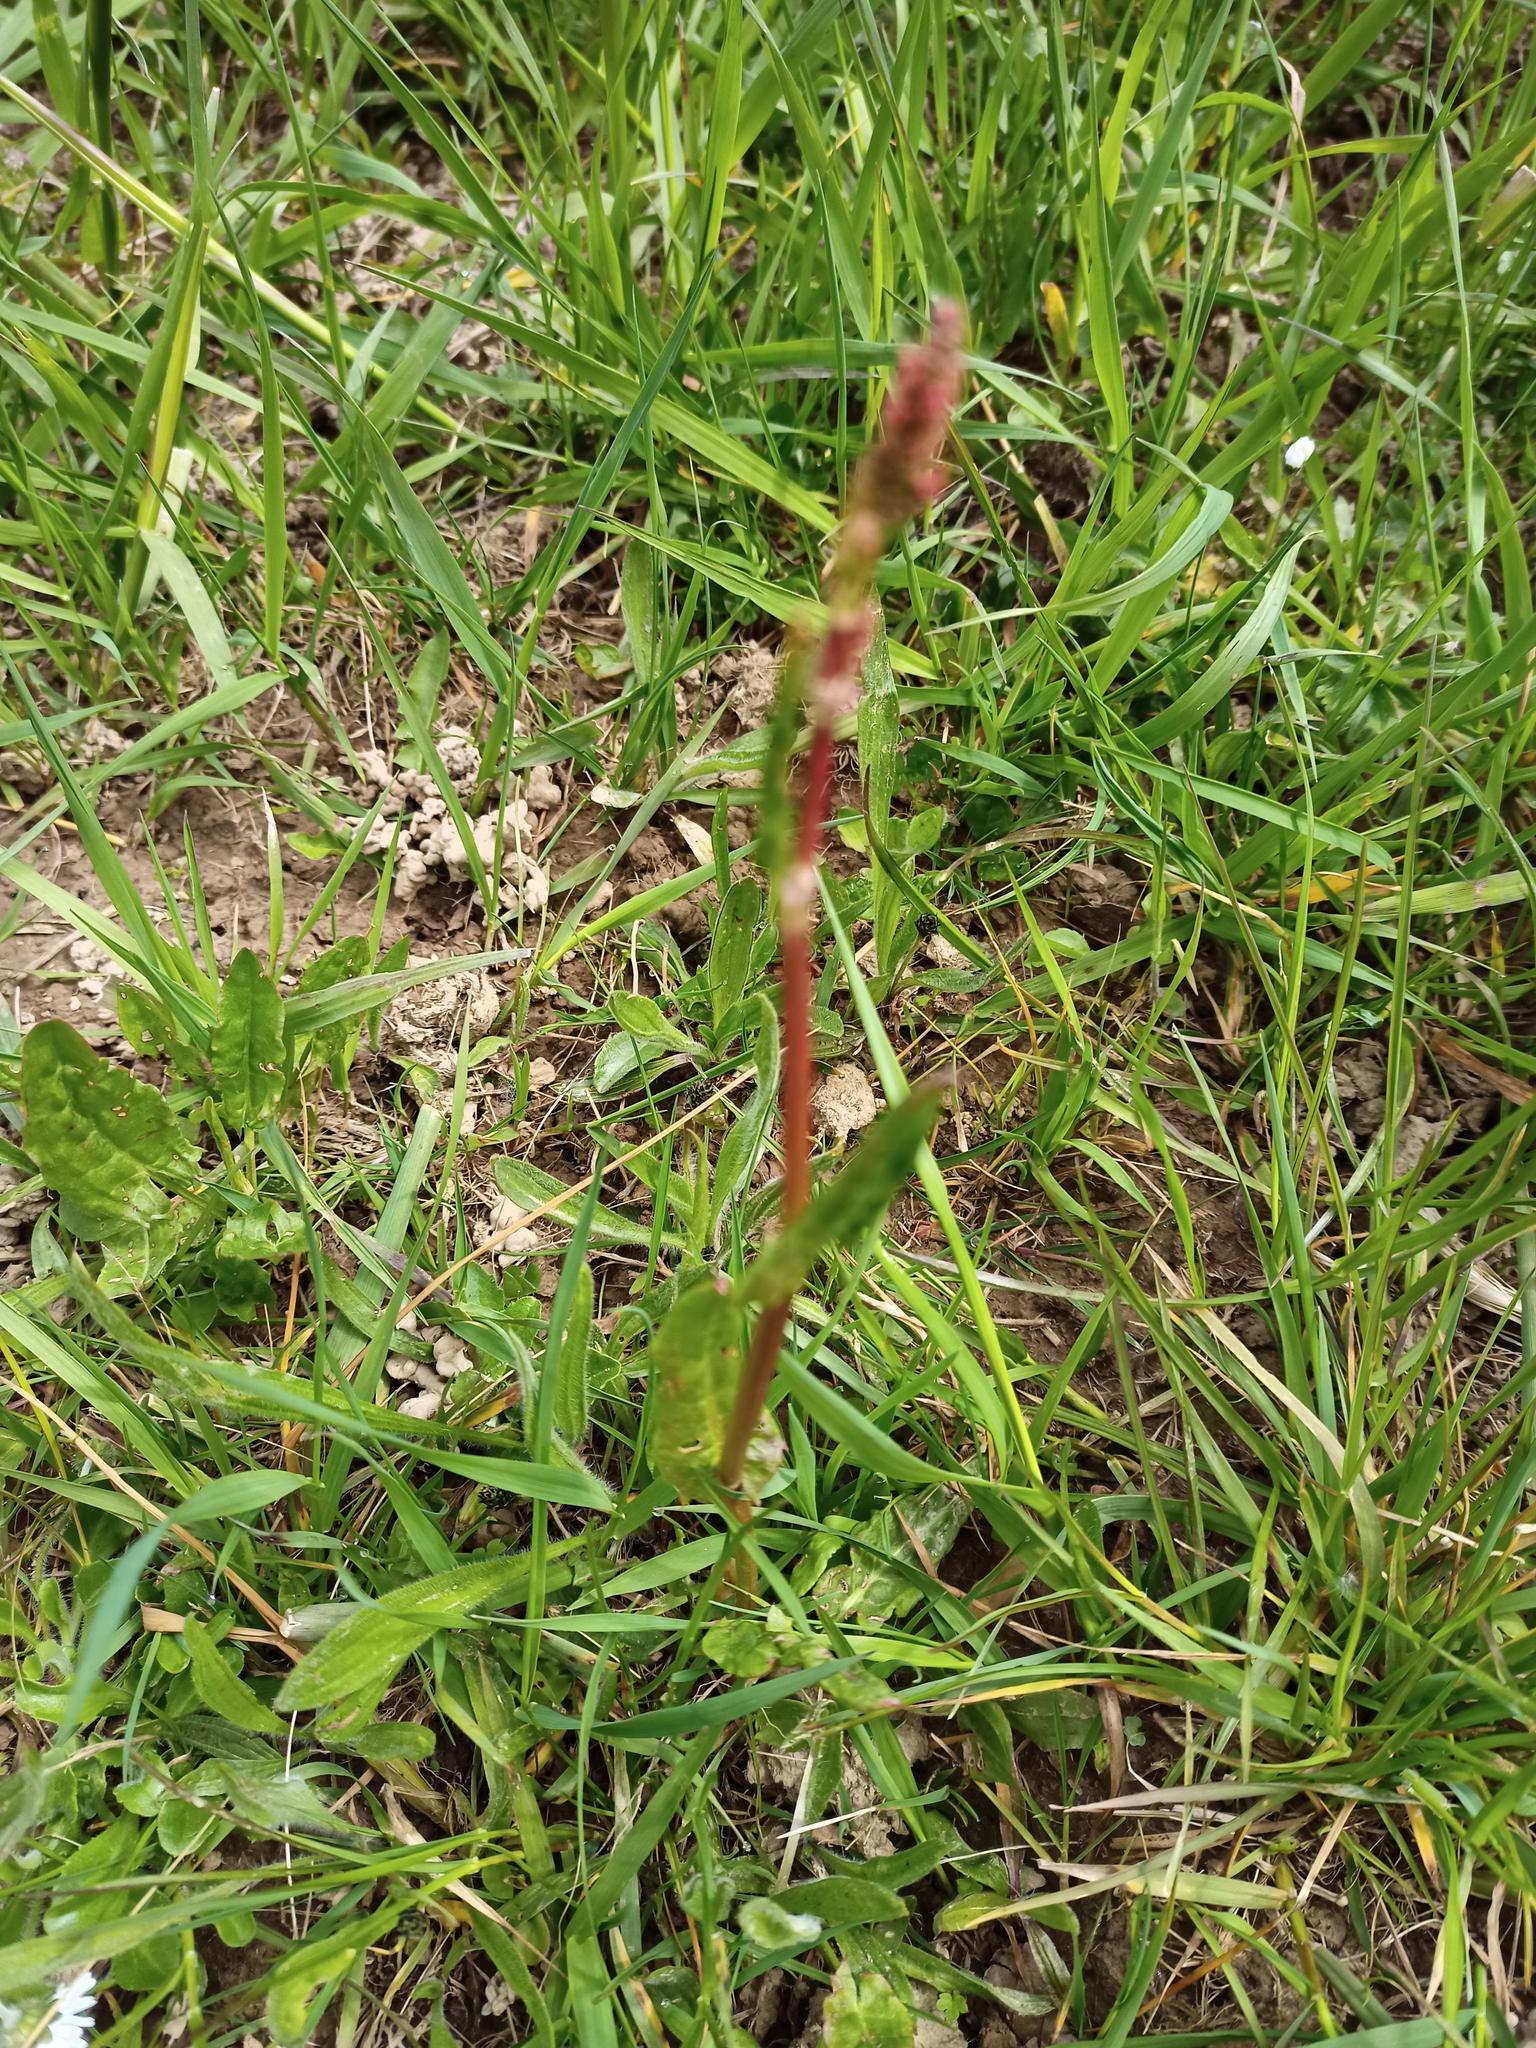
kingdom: Plantae
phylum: Tracheophyta
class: Magnoliopsida
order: Caryophyllales
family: Polygonaceae
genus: Rumex
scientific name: Rumex acetosa
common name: Garden sorrel
